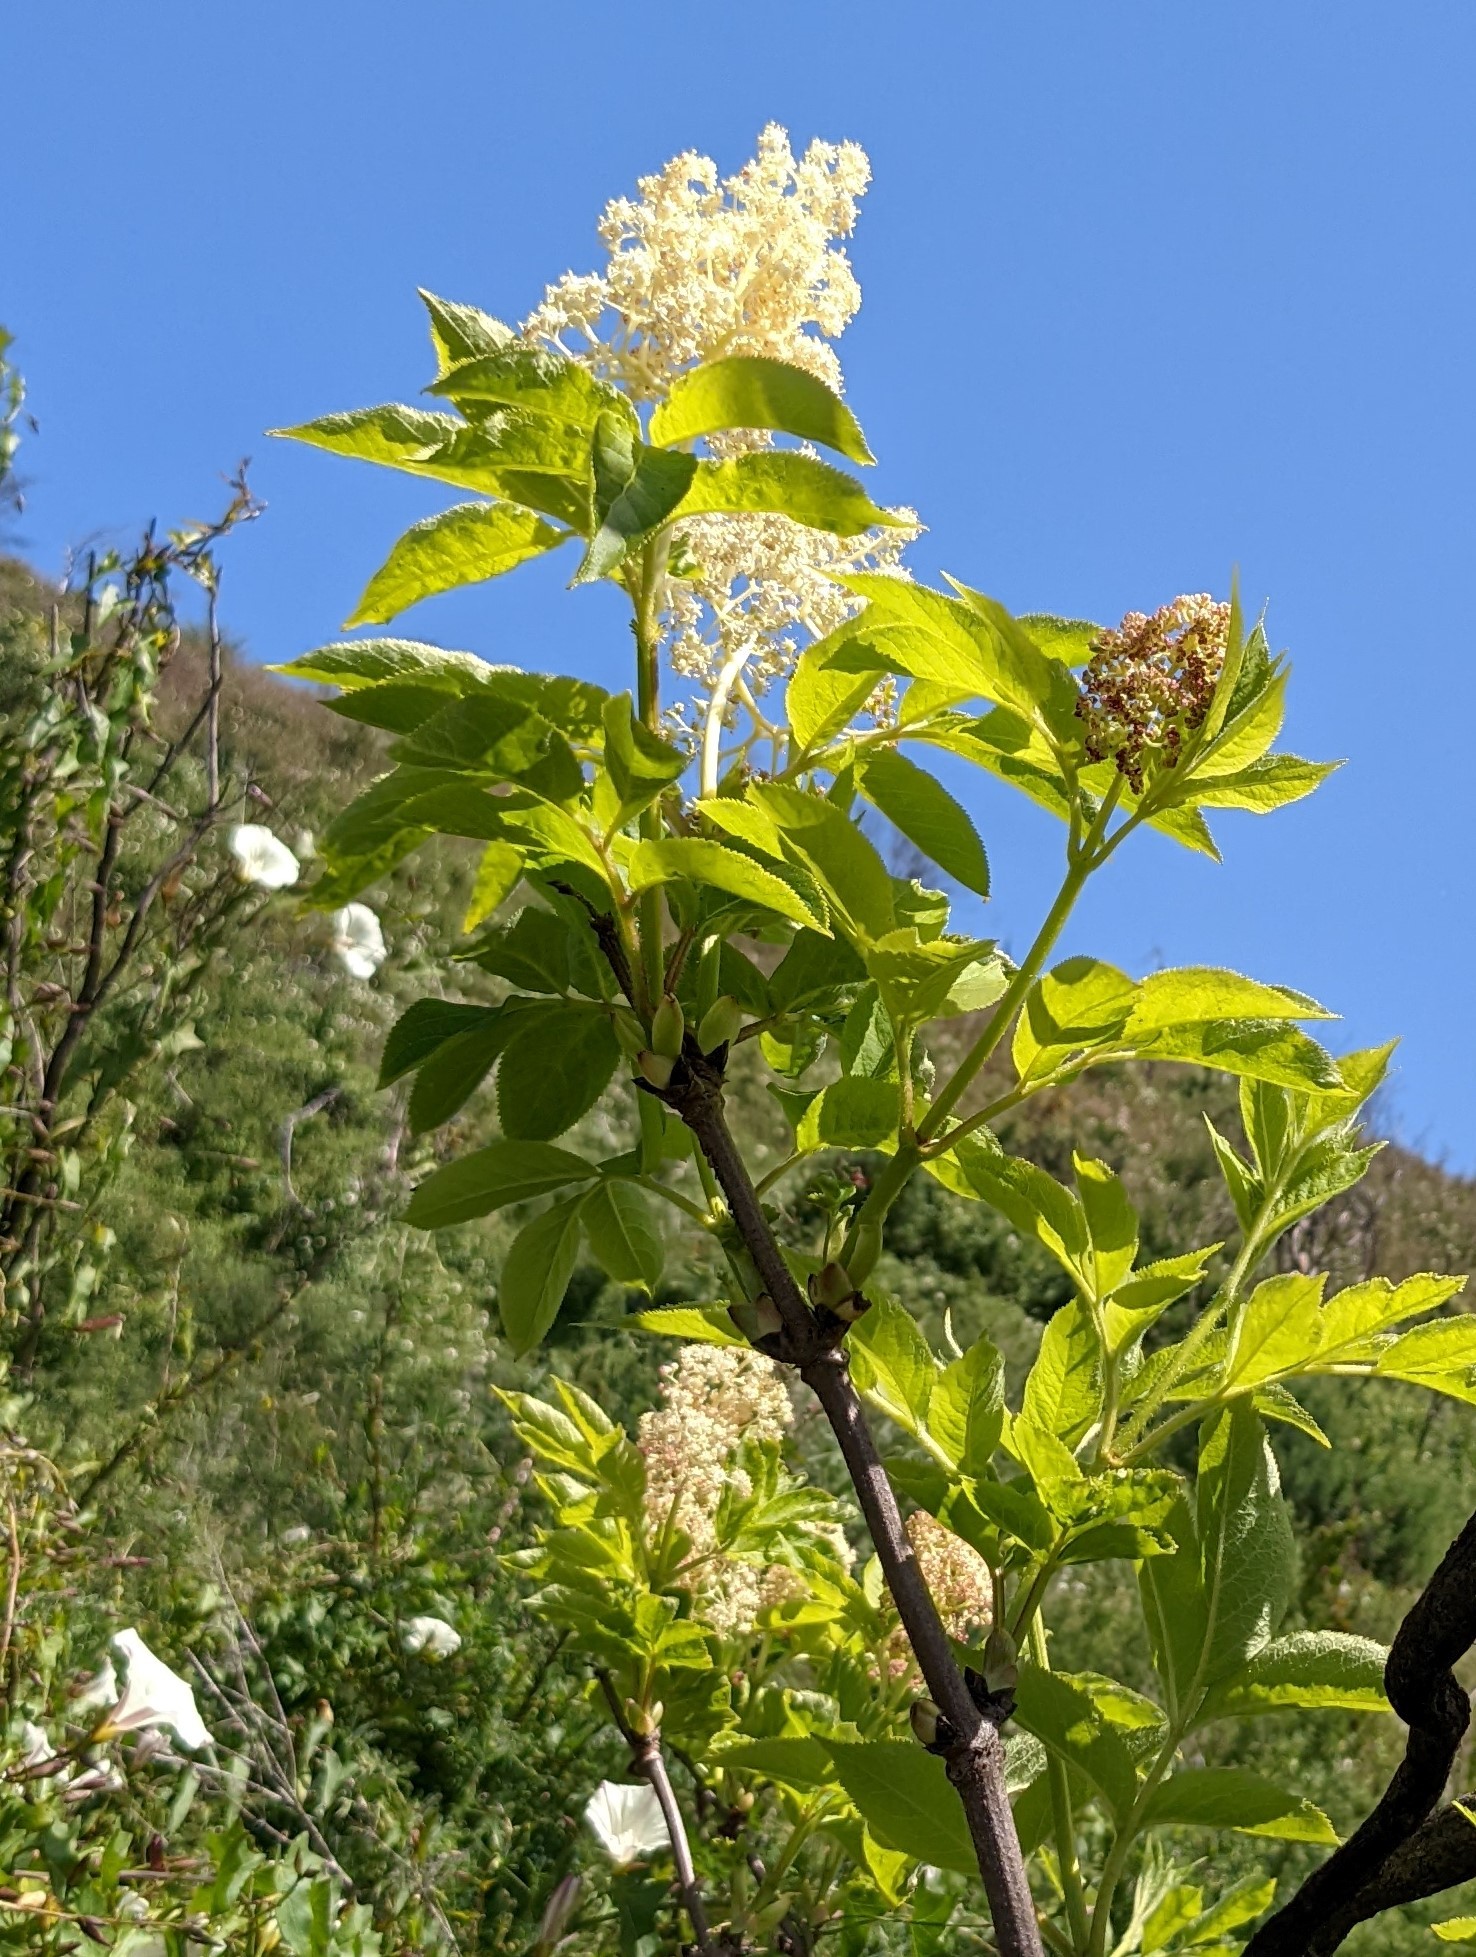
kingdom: Plantae
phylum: Tracheophyta
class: Magnoliopsida
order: Dipsacales
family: Viburnaceae
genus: Sambucus
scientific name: Sambucus racemosa
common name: Red-berried elder
